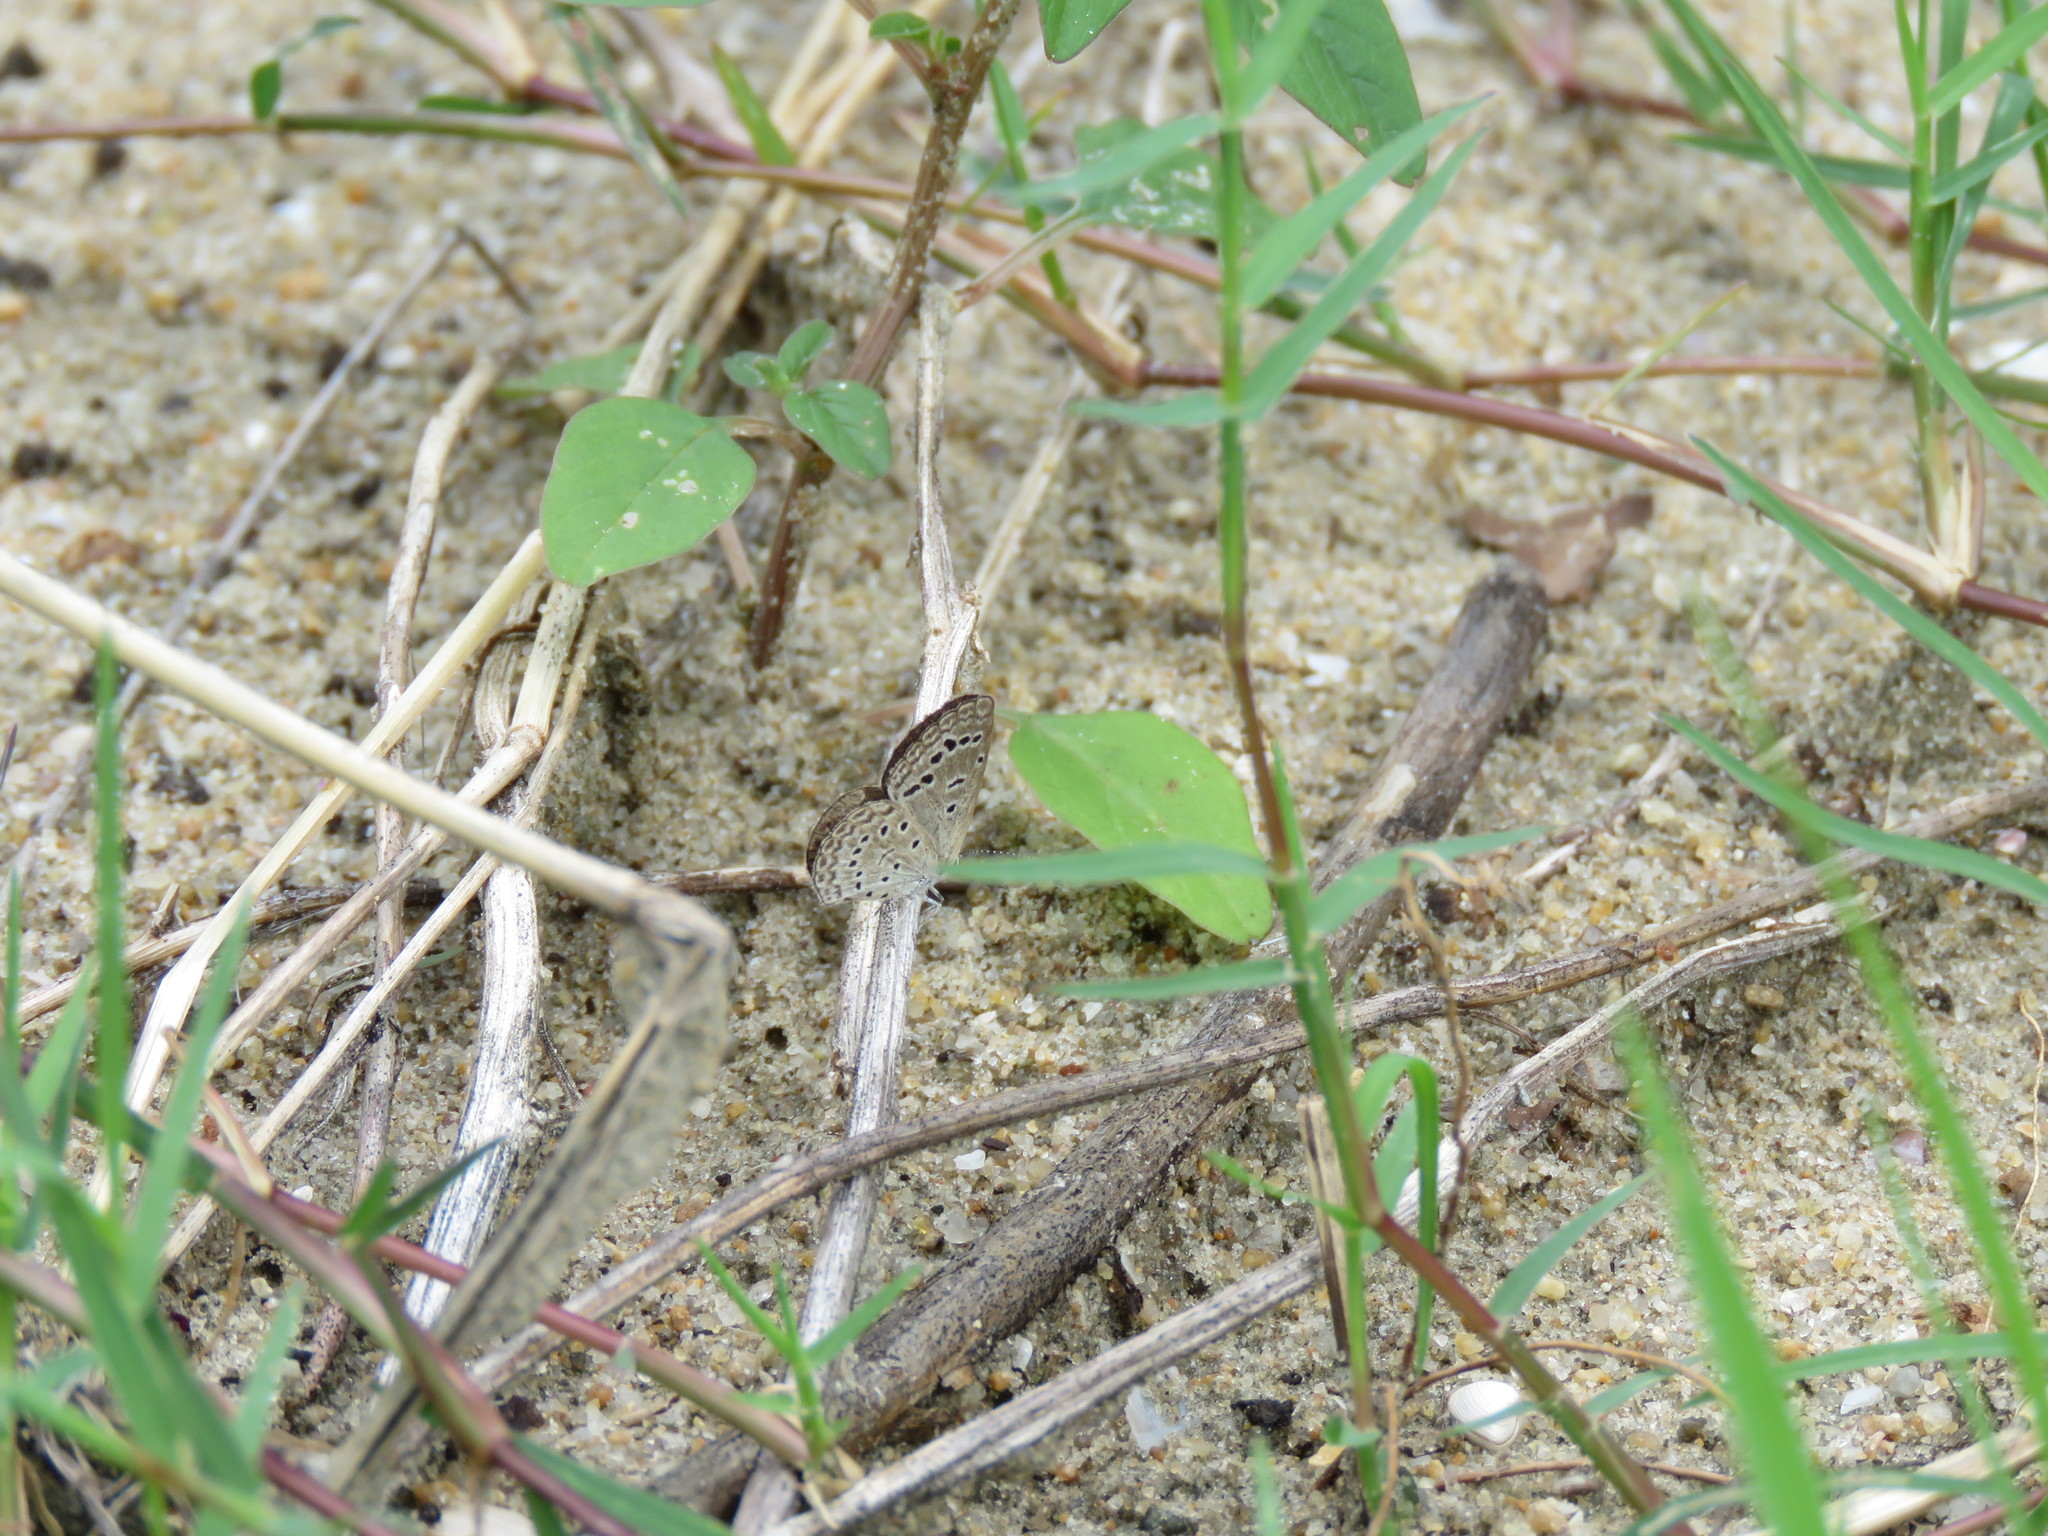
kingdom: Animalia
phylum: Arthropoda
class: Insecta
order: Lepidoptera
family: Lycaenidae
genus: Zizeeria
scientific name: Zizeeria karsandra
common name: Dark grass blue
